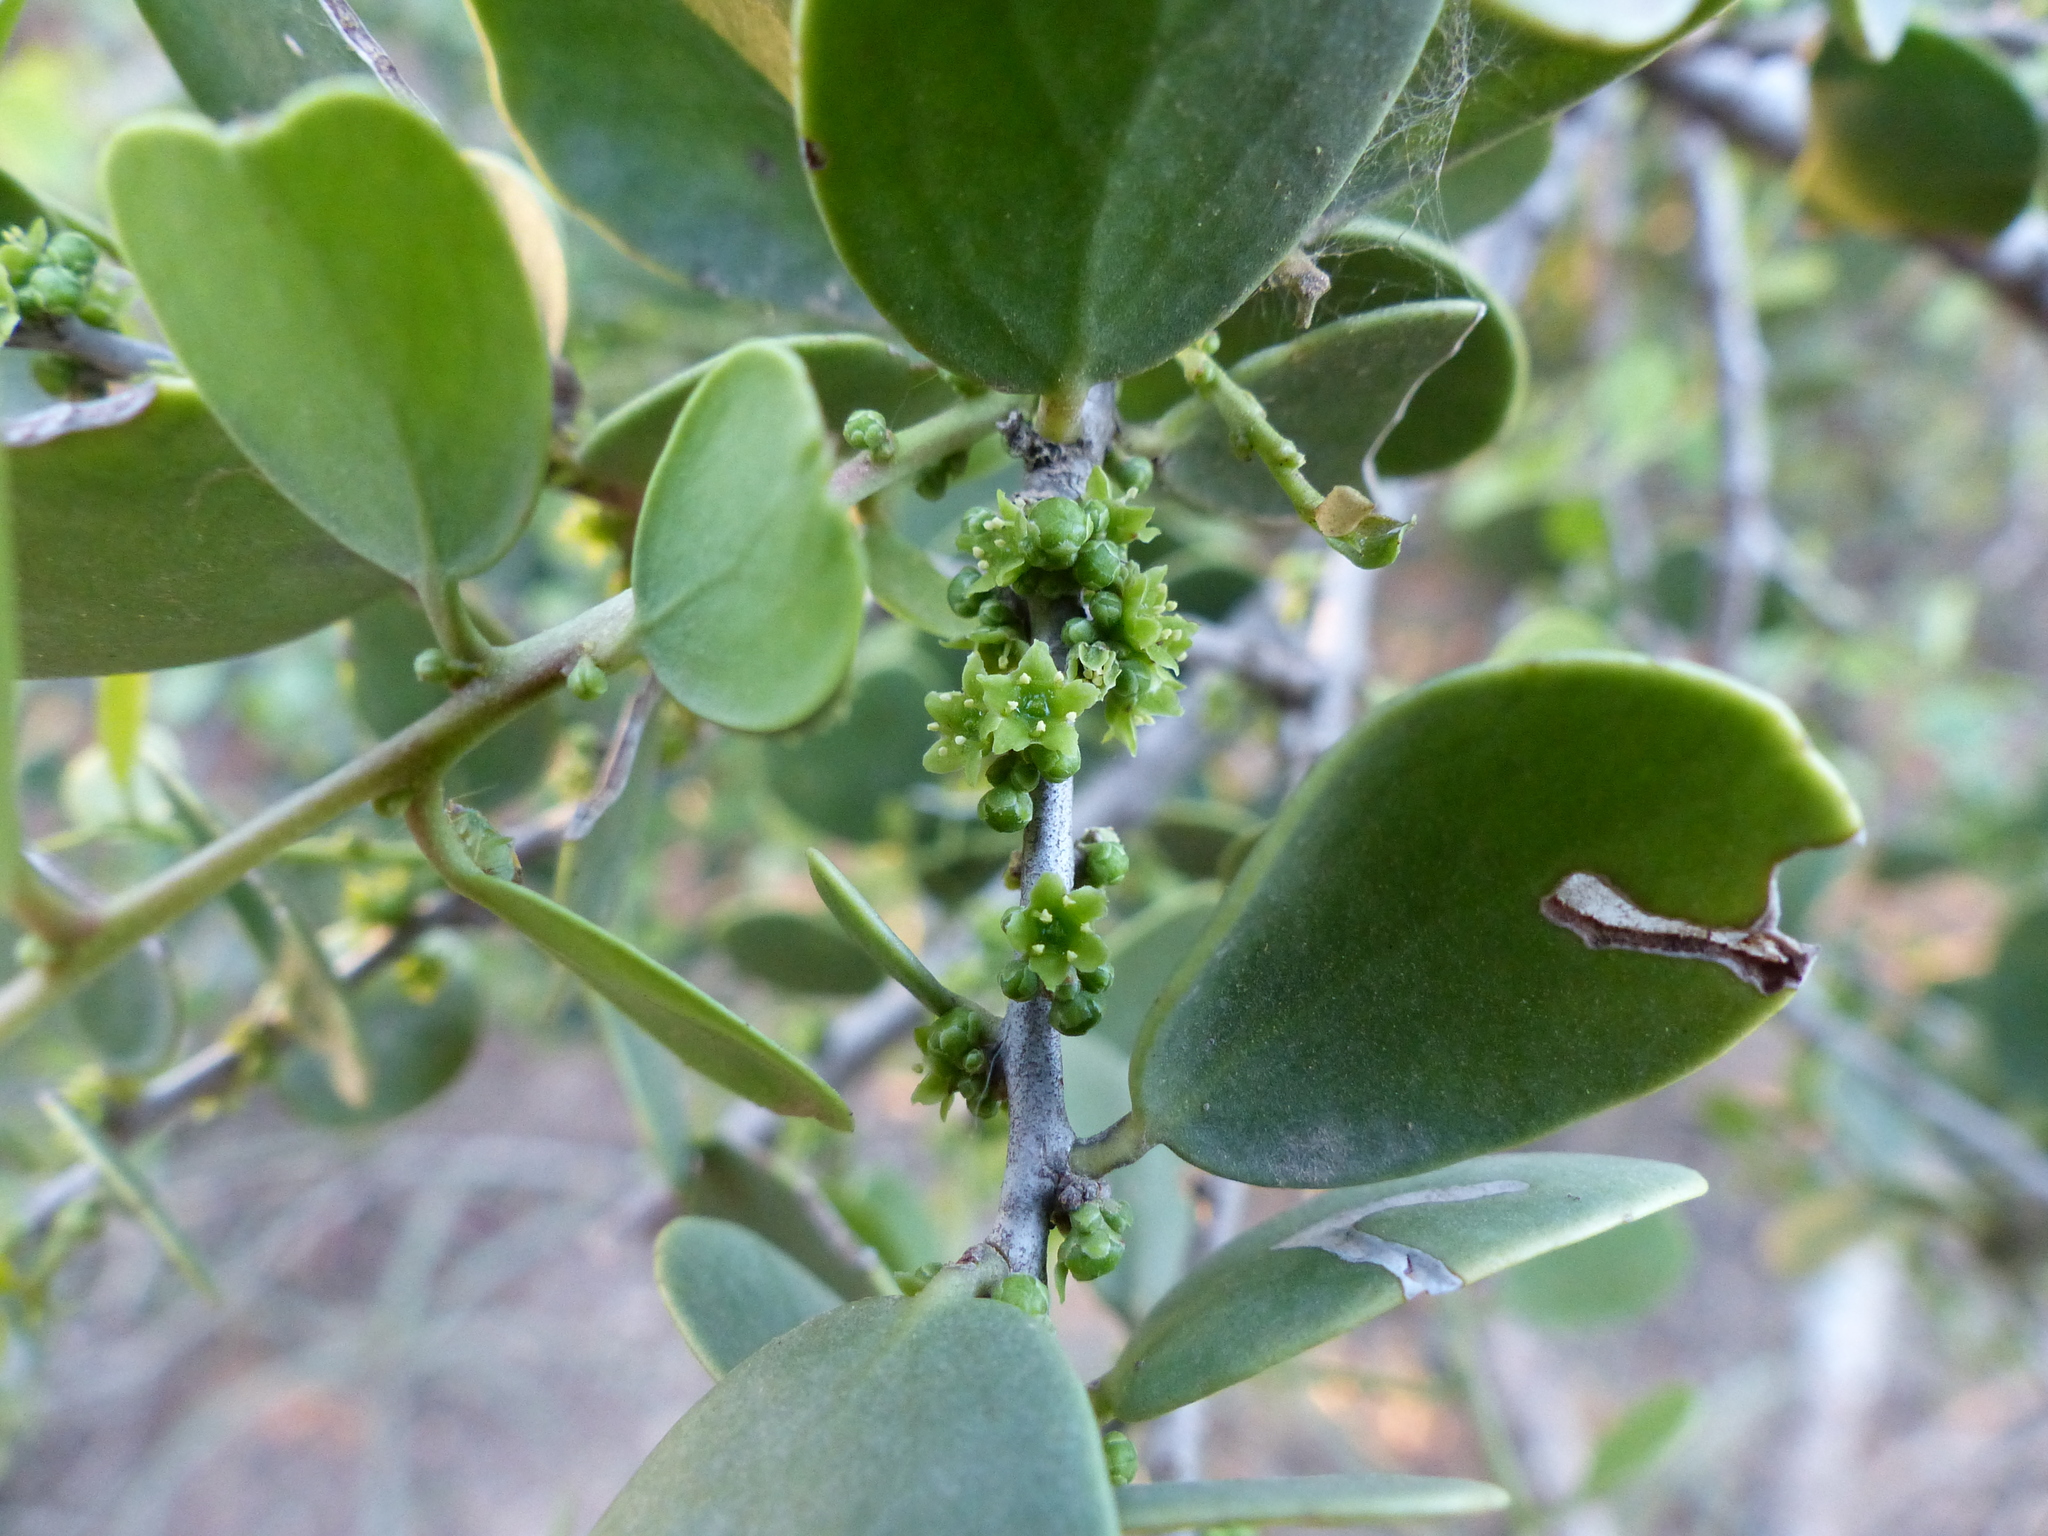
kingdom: Plantae
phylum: Tracheophyta
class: Magnoliopsida
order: Celastrales
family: Celastraceae
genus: Tricerma
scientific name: Tricerma vitis-idaeum
